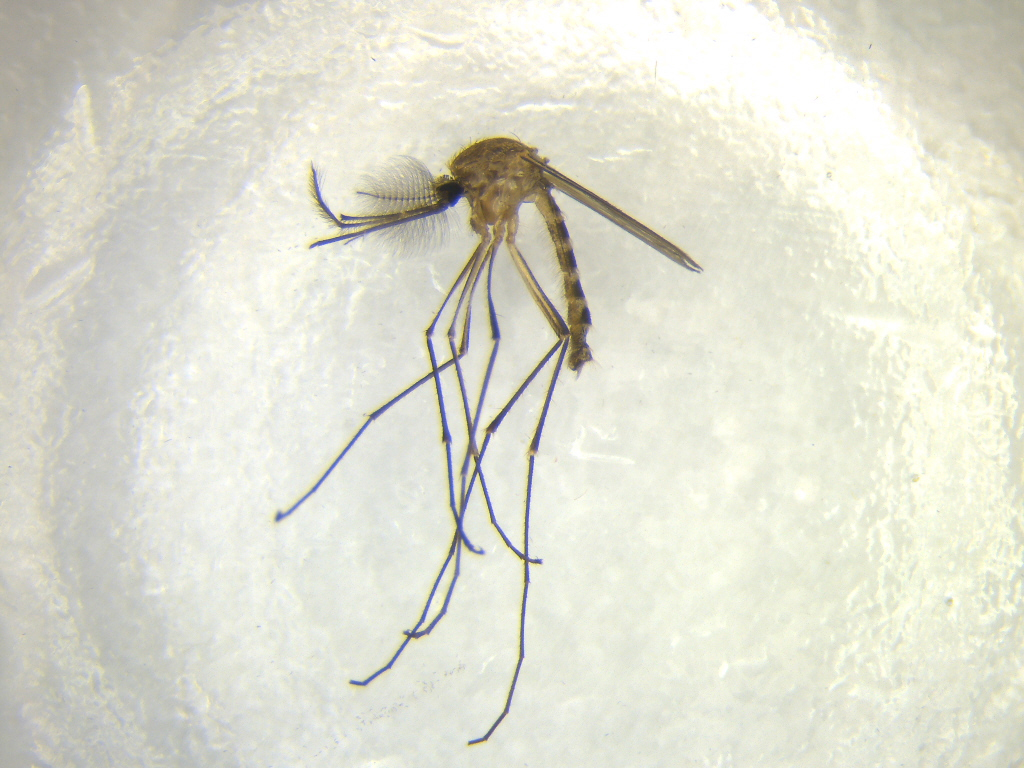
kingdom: Animalia
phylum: Arthropoda
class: Insecta
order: Diptera
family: Culicidae
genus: Culex
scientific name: Culex quinquefasciatus
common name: Southern house mosquito
